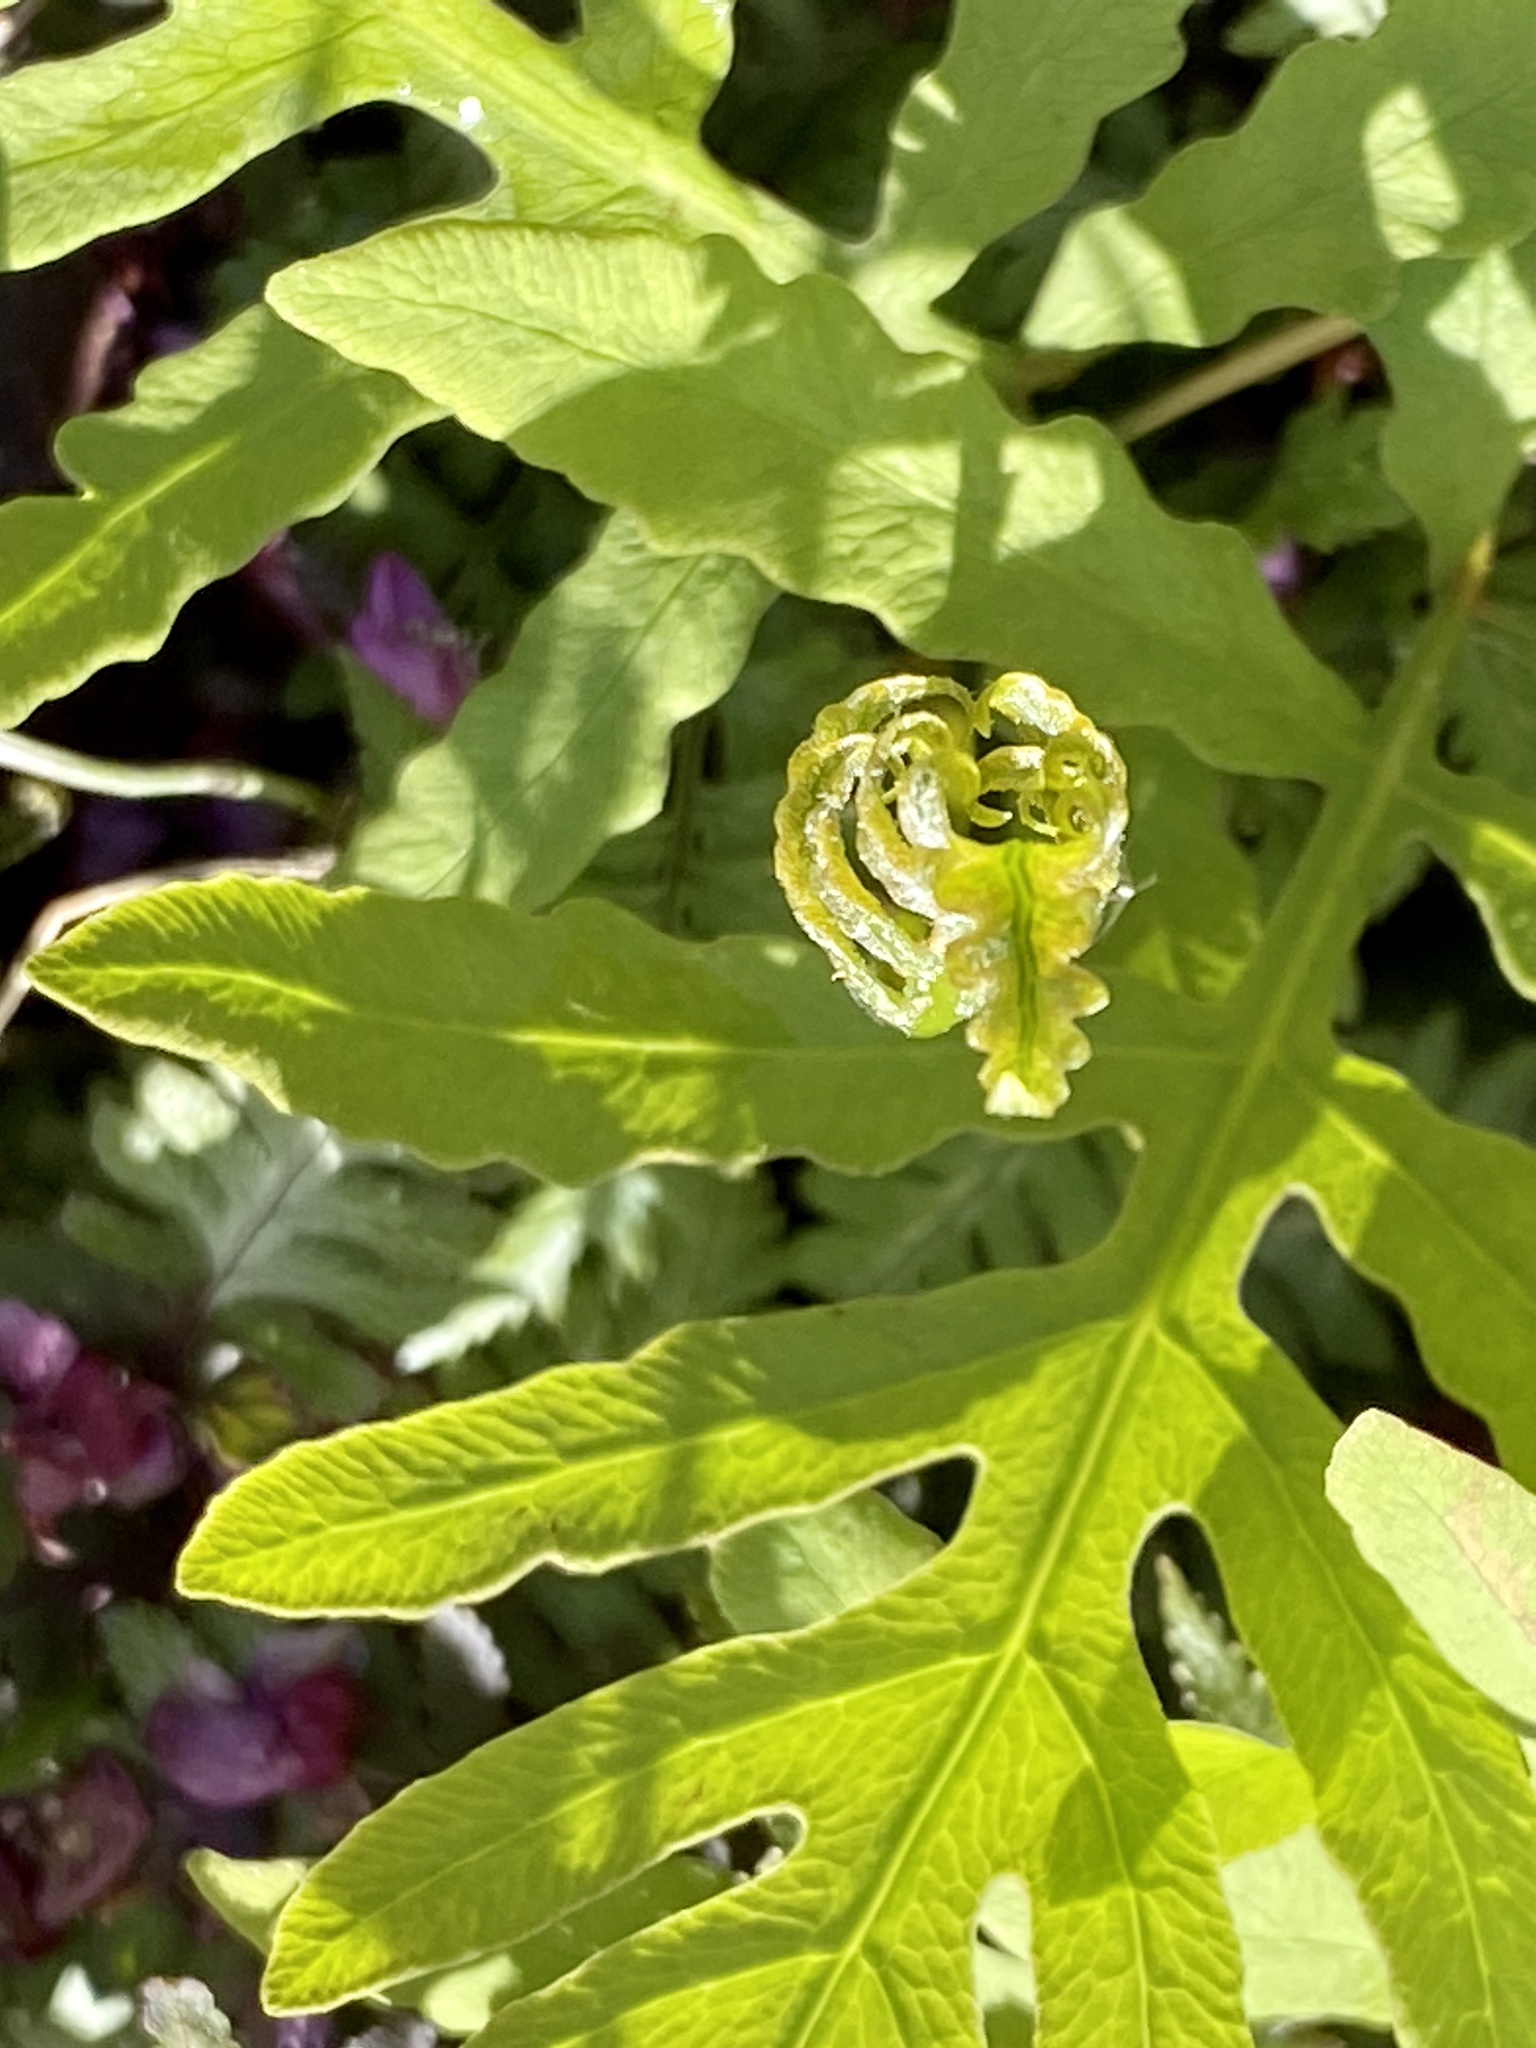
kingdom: Plantae
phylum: Tracheophyta
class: Polypodiopsida
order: Polypodiales
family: Onocleaceae
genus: Onoclea
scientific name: Onoclea sensibilis
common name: Sensitive fern
